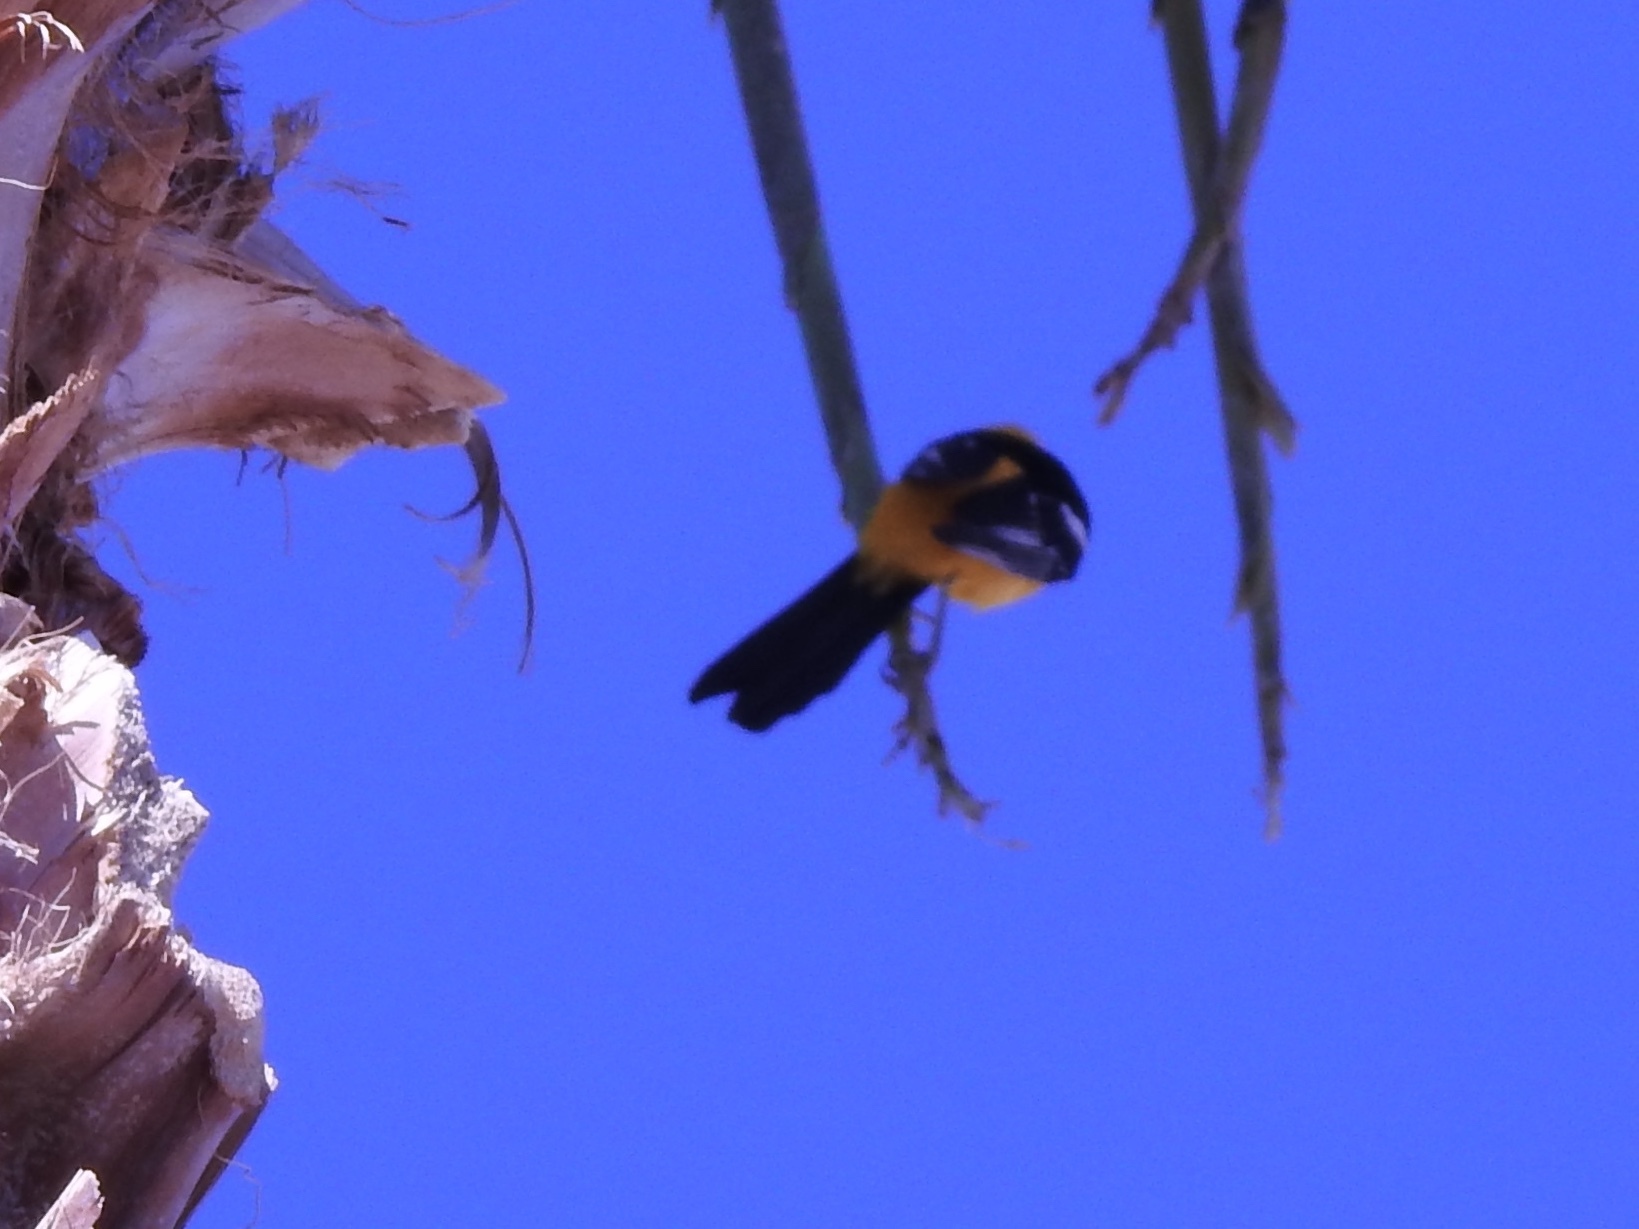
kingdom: Animalia
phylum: Chordata
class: Aves
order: Passeriformes
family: Icteridae
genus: Icterus
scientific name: Icterus cucullatus
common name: Hooded oriole
